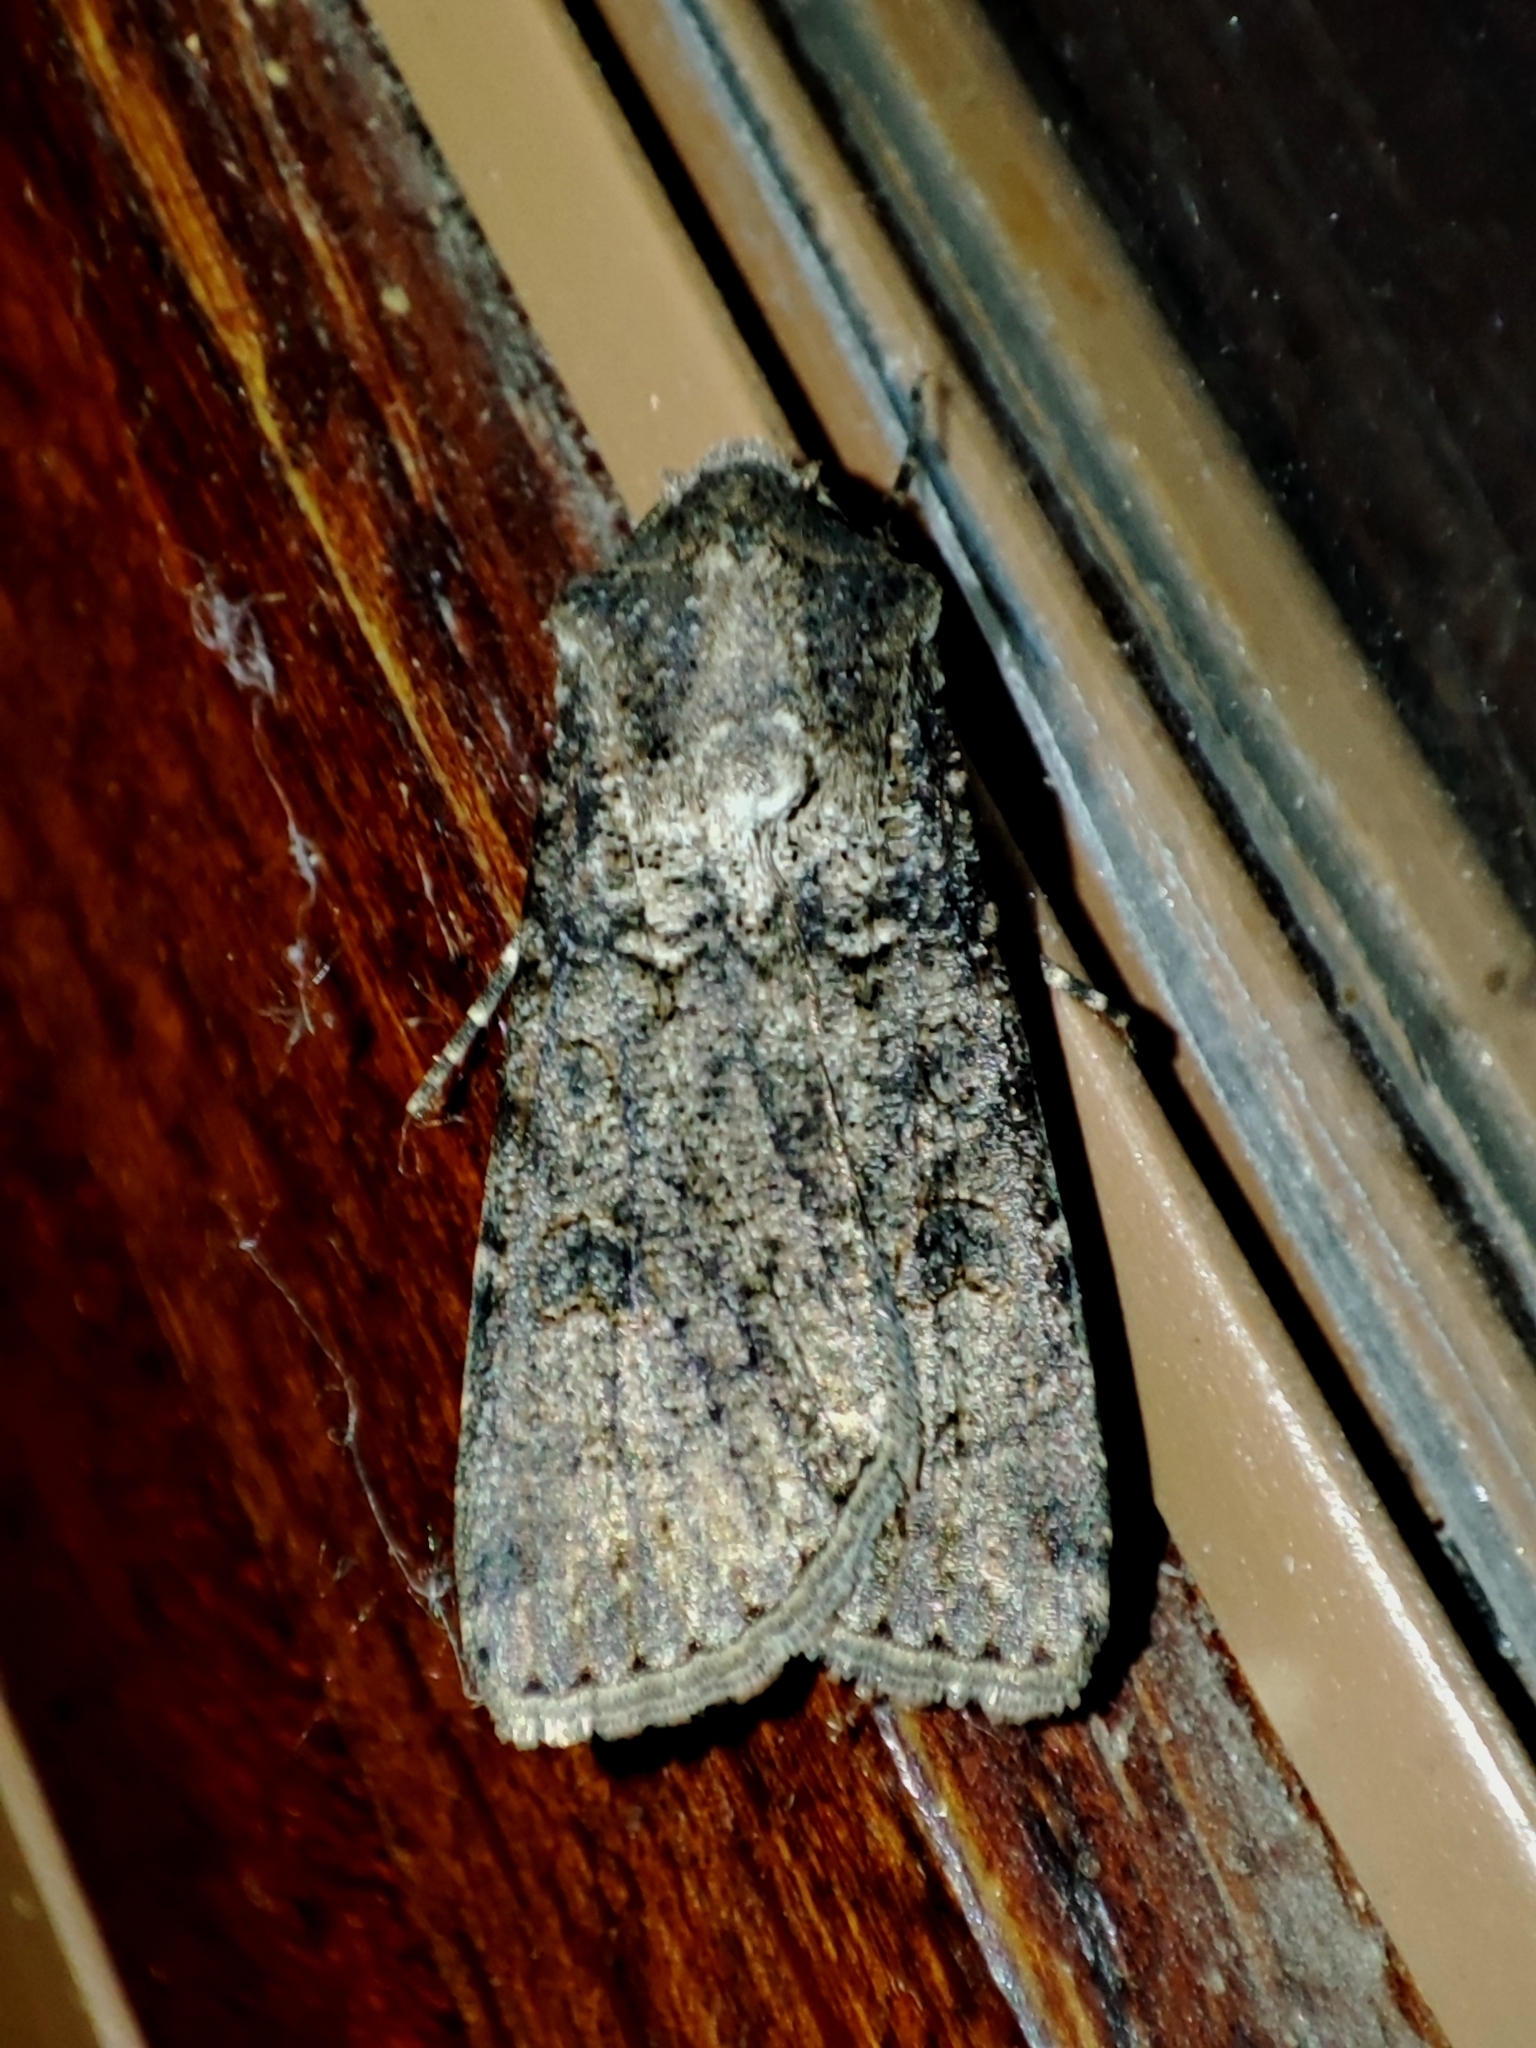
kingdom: Animalia
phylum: Arthropoda
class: Insecta
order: Lepidoptera
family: Noctuidae
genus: Agrotis
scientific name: Agrotis segetum
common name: Turnip moth
